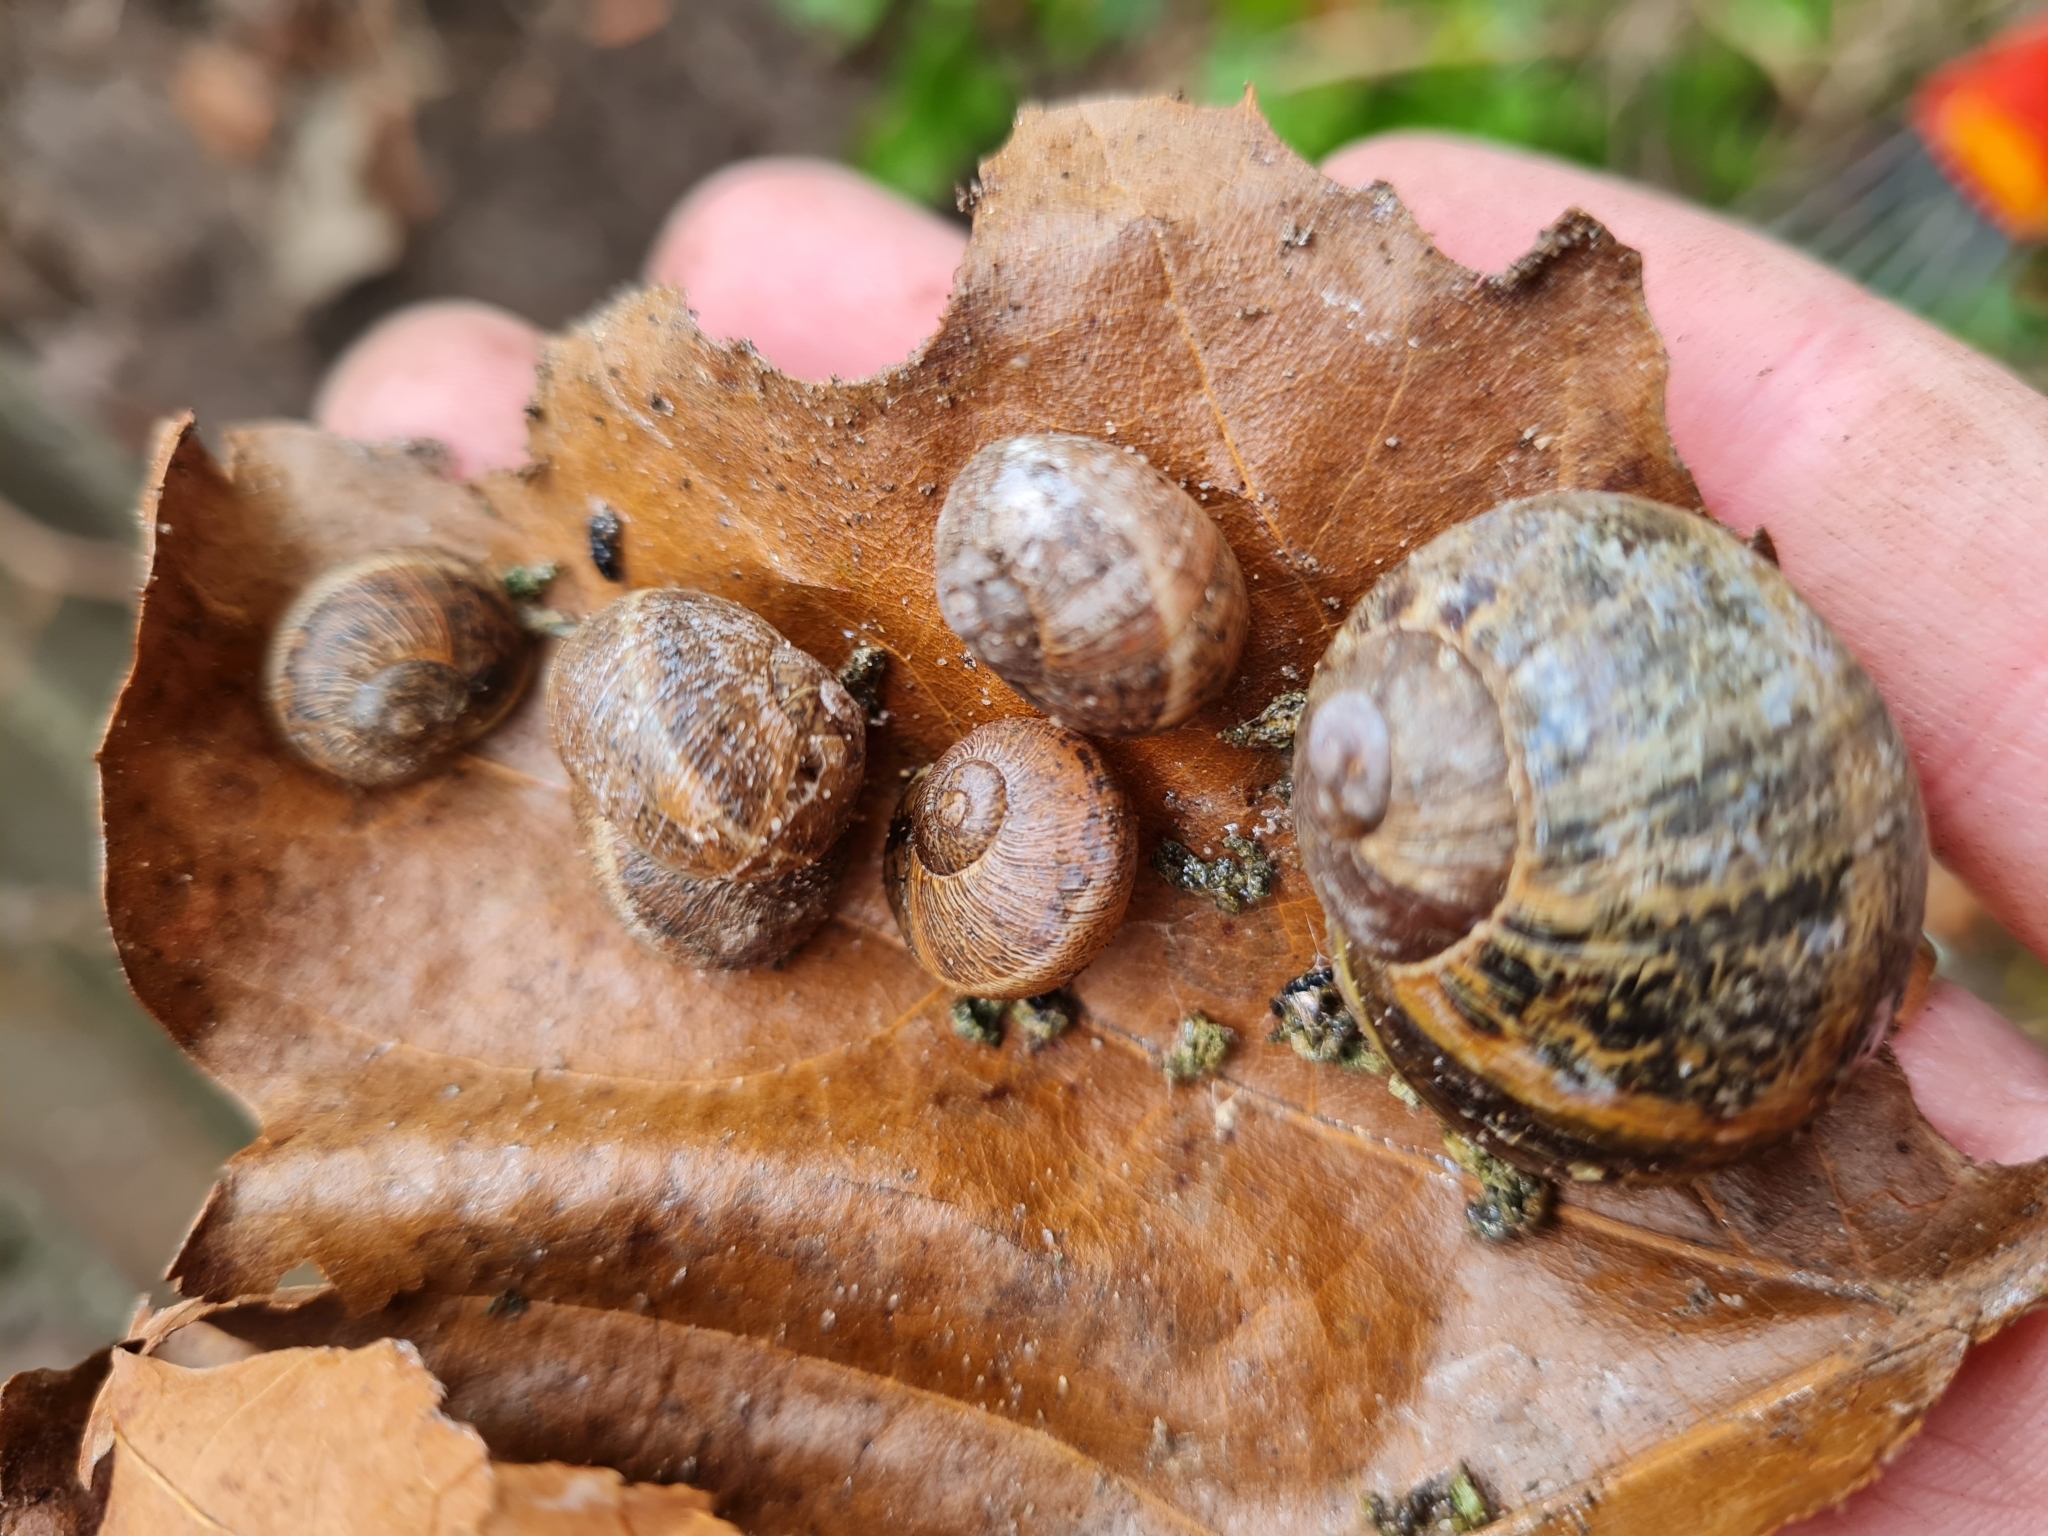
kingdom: Animalia
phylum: Mollusca
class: Gastropoda
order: Stylommatophora
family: Helicidae
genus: Cornu
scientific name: Cornu aspersum
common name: Brown garden snail
